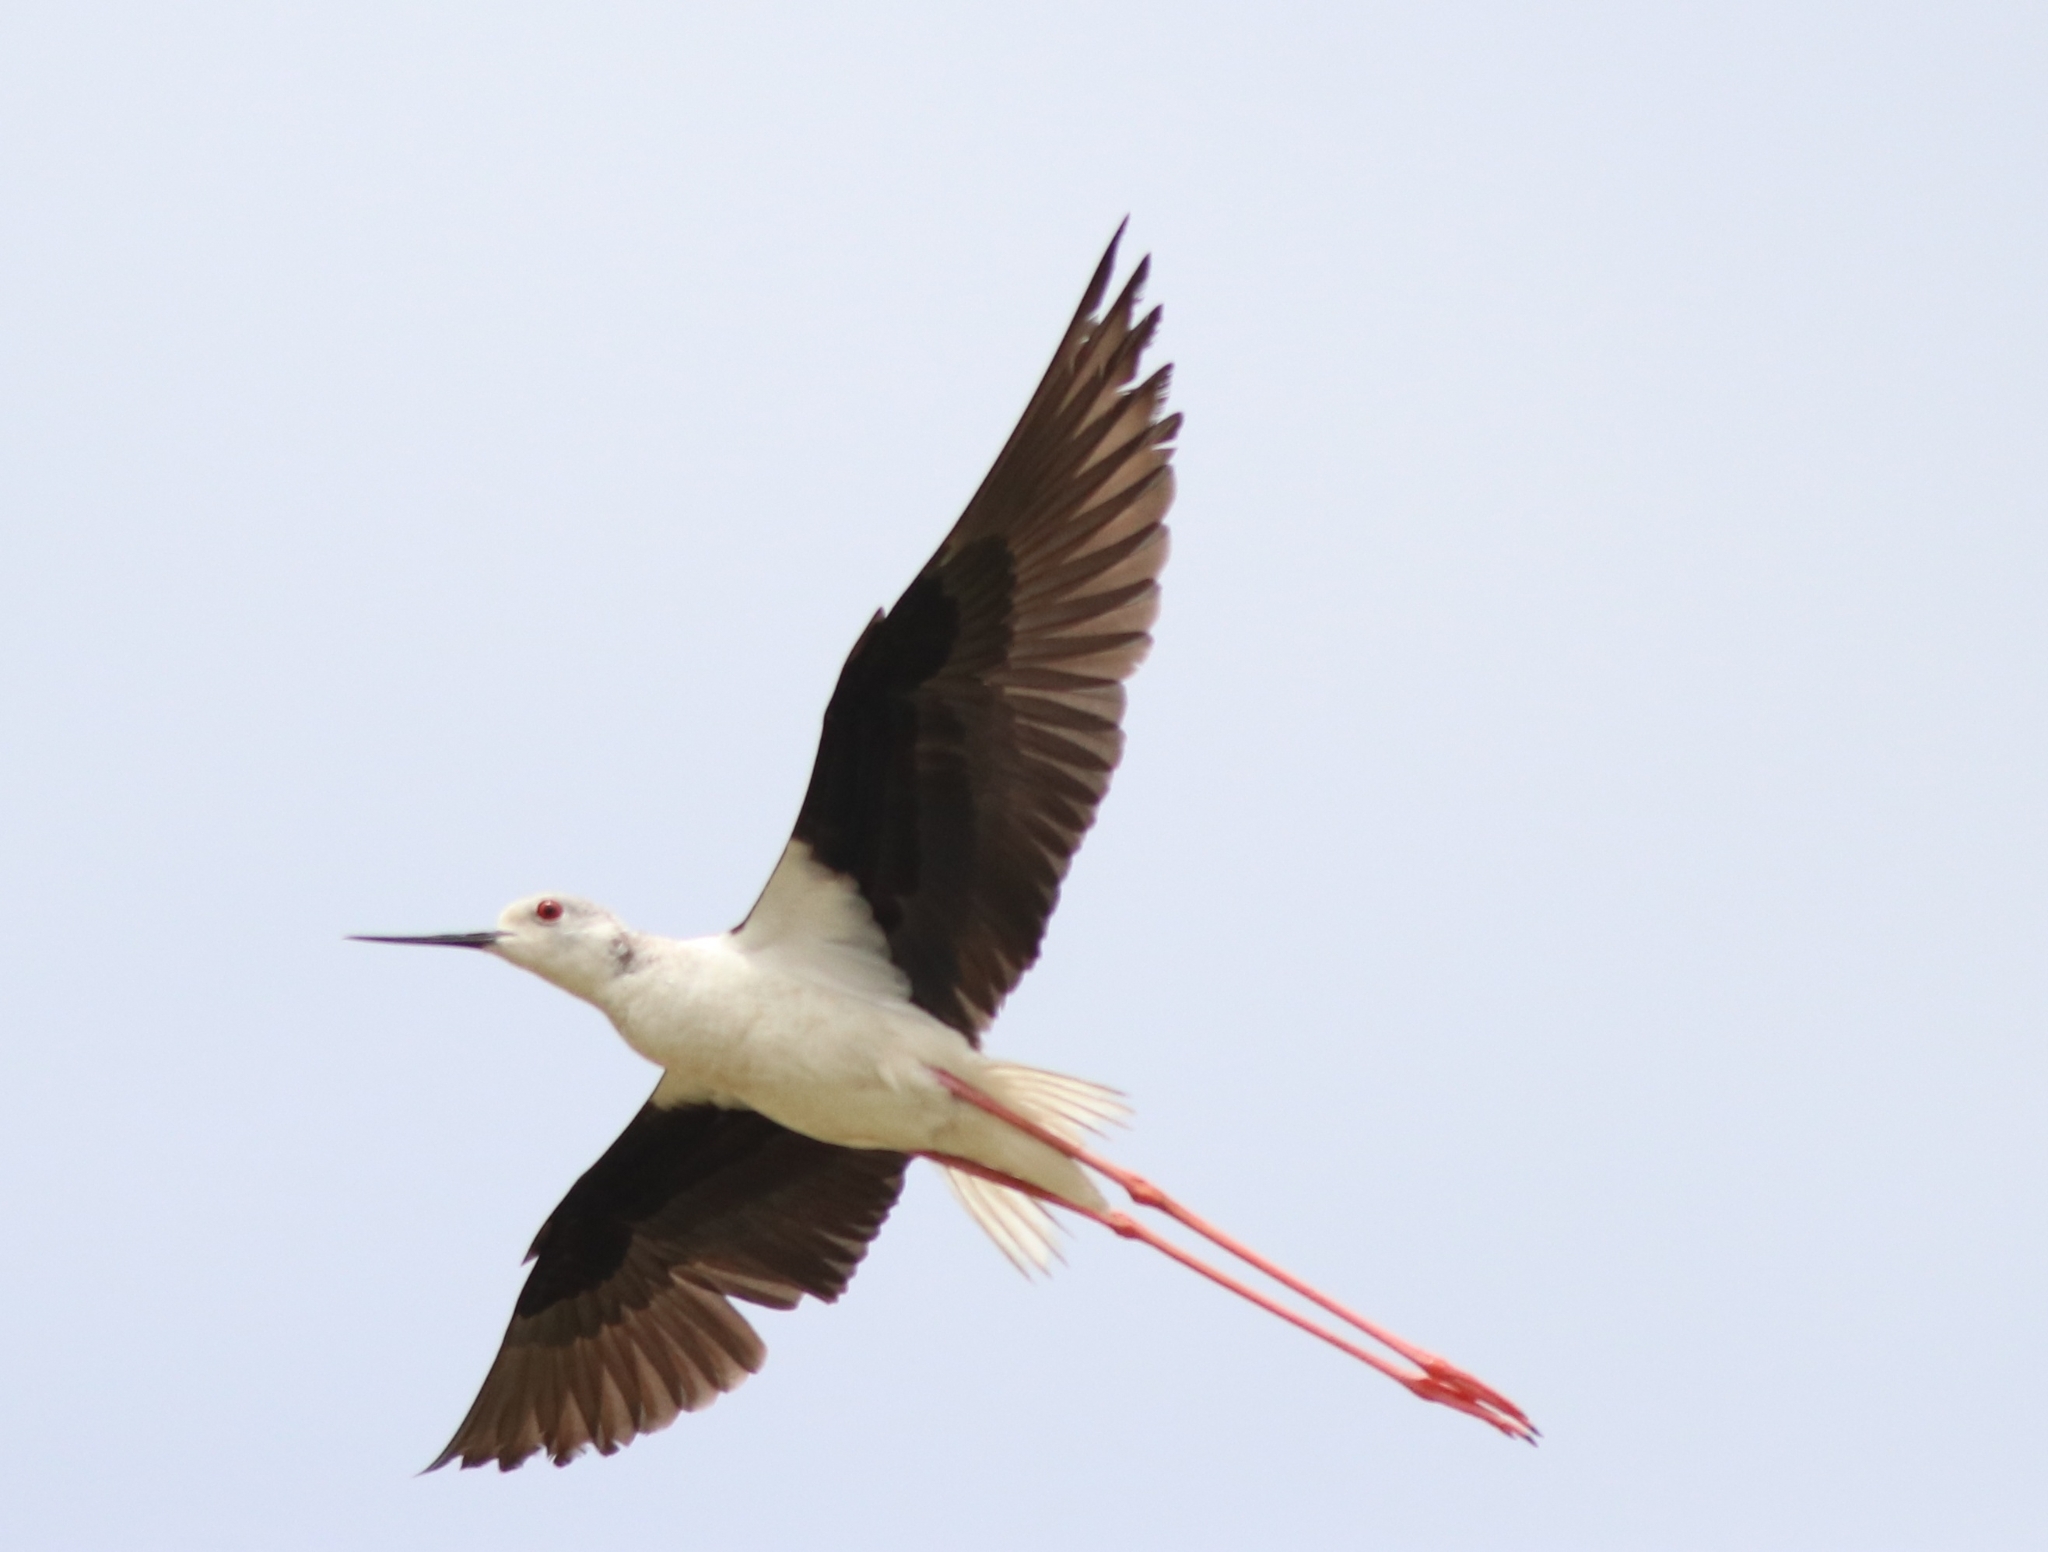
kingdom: Animalia
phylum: Chordata
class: Aves
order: Charadriiformes
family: Recurvirostridae
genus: Himantopus
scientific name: Himantopus himantopus
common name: Black-winged stilt
